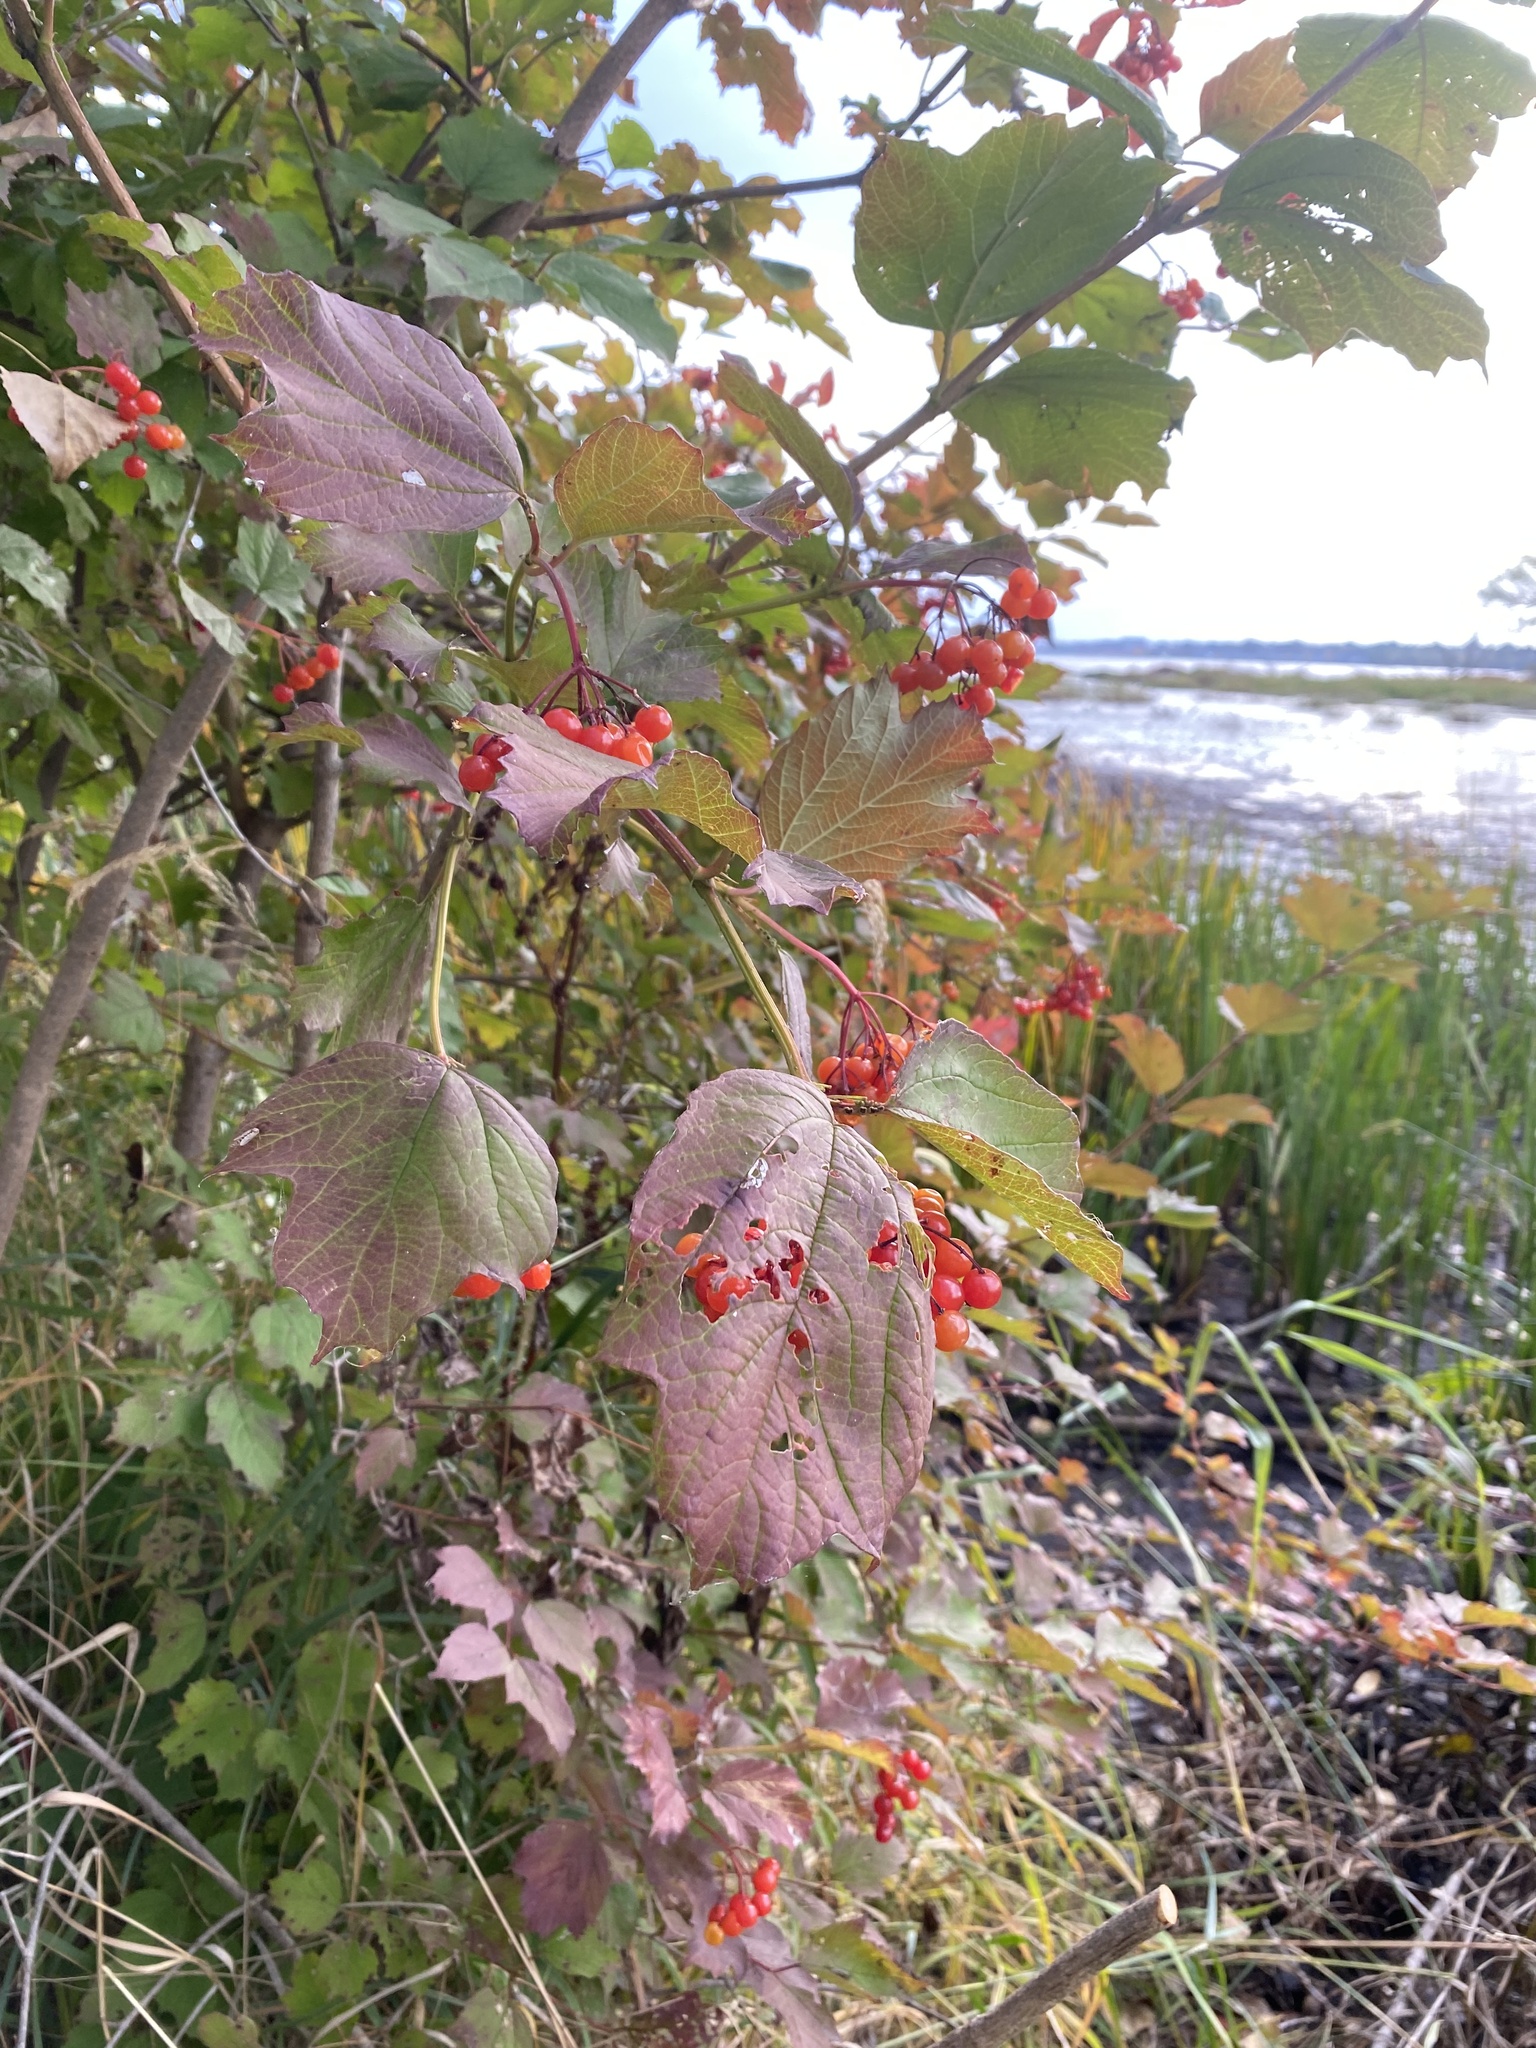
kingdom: Plantae
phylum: Tracheophyta
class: Magnoliopsida
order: Dipsacales
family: Viburnaceae
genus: Viburnum
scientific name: Viburnum opulus
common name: Guelder-rose
